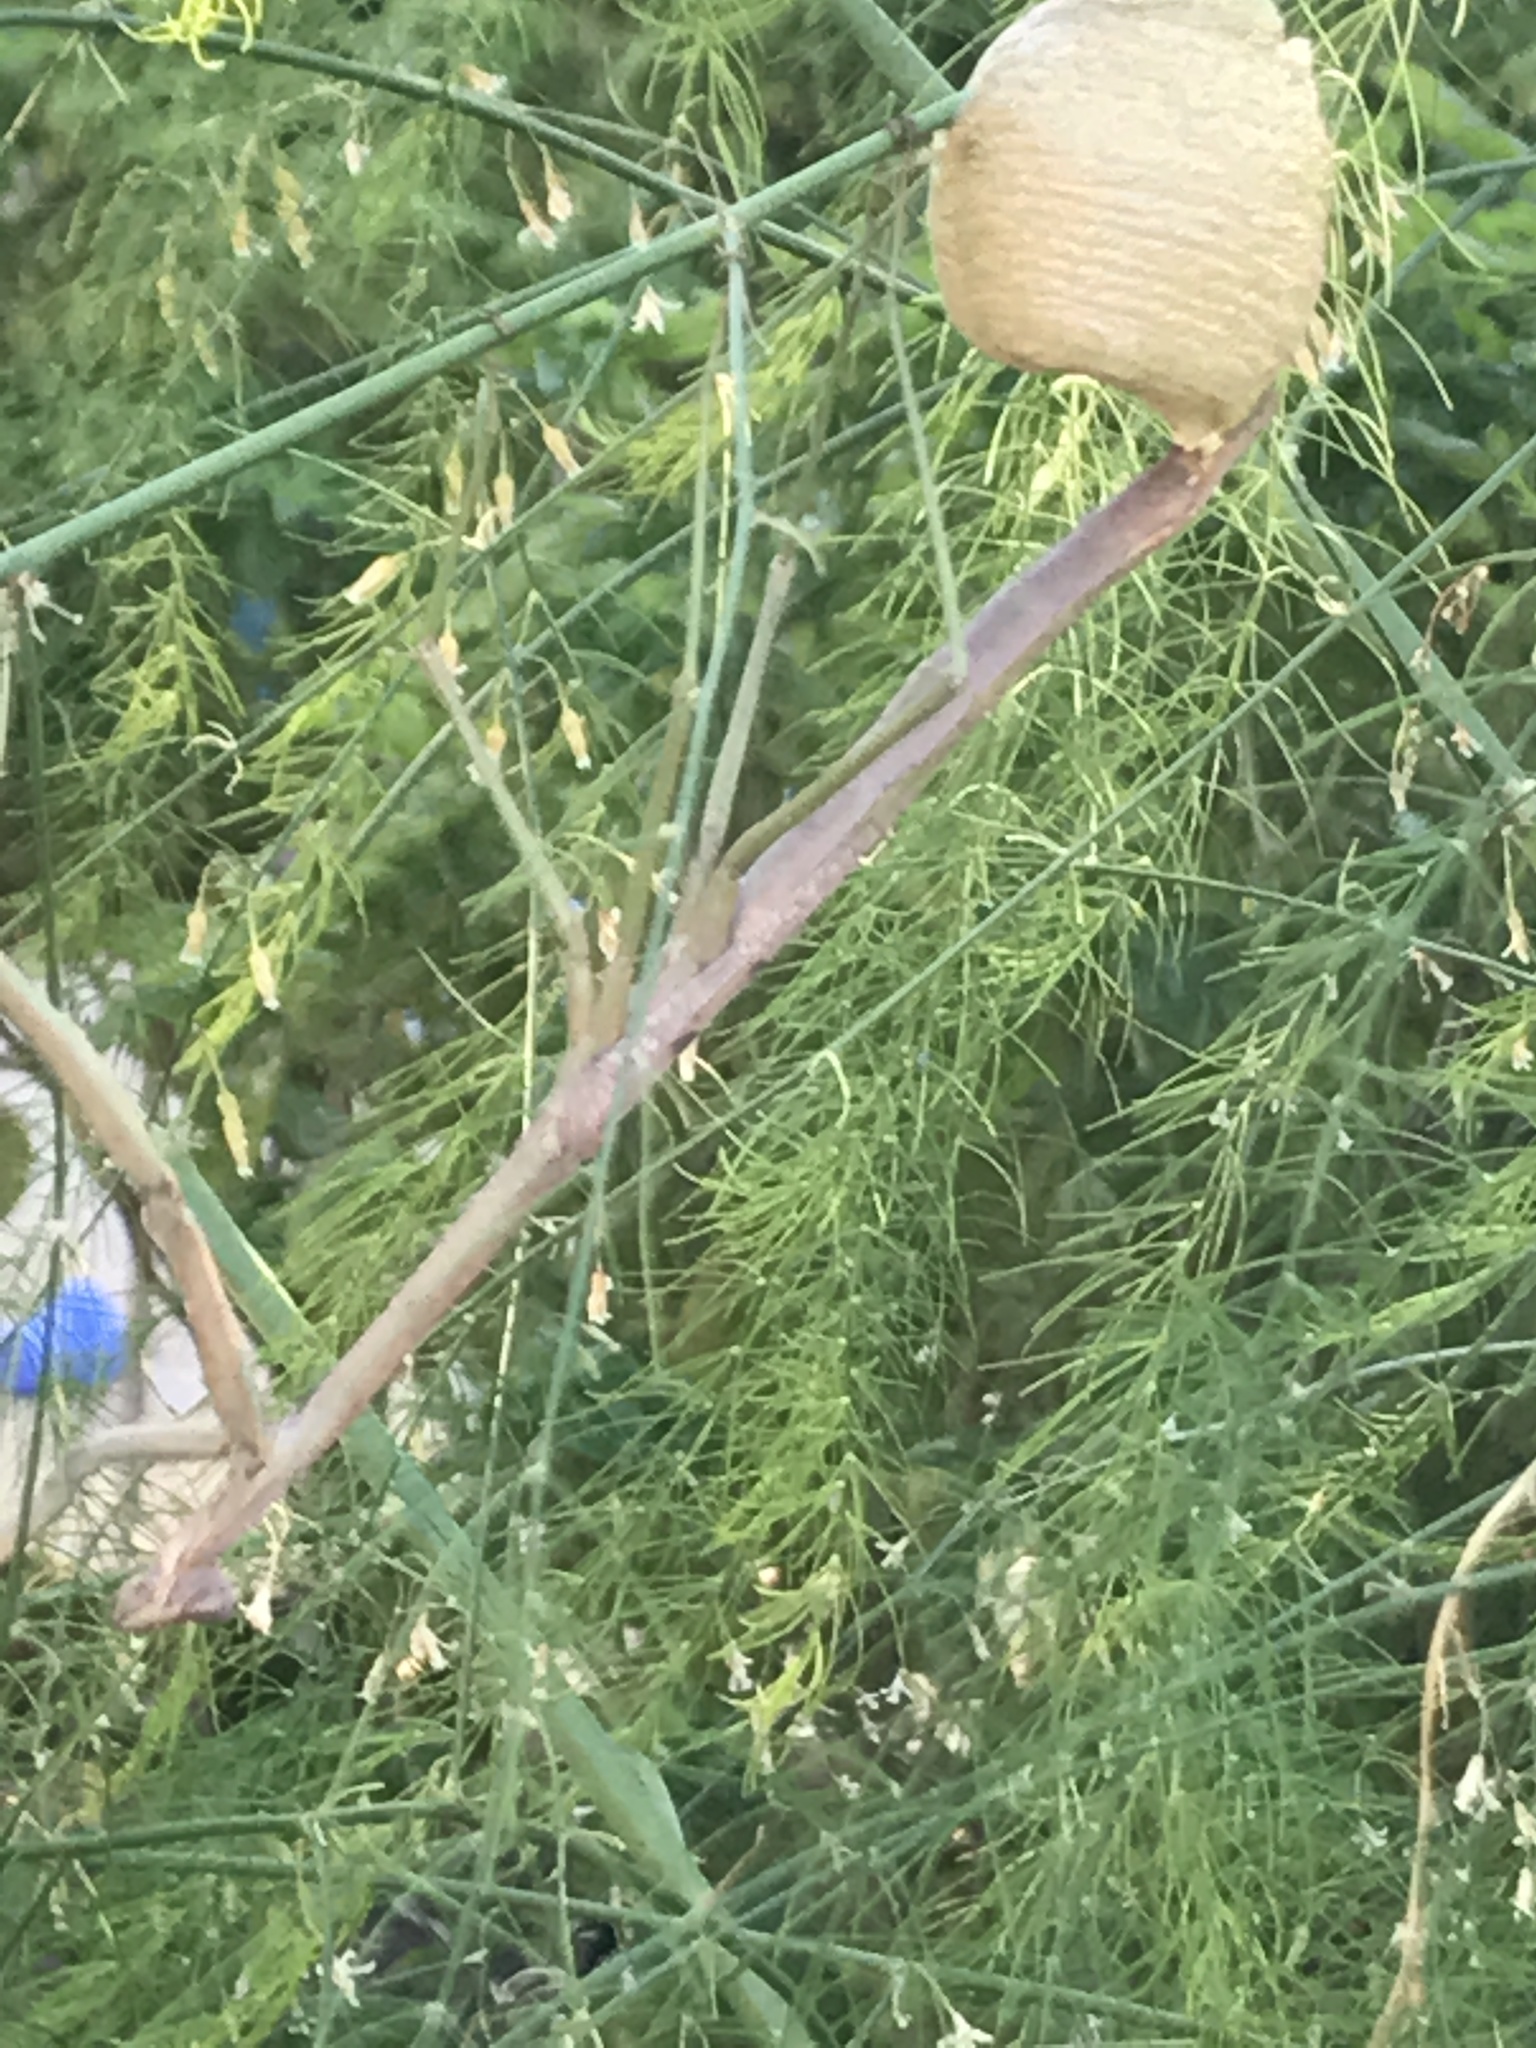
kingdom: Animalia
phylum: Arthropoda
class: Insecta
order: Mantodea
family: Mantidae
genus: Archimantis
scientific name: Archimantis latistyla
